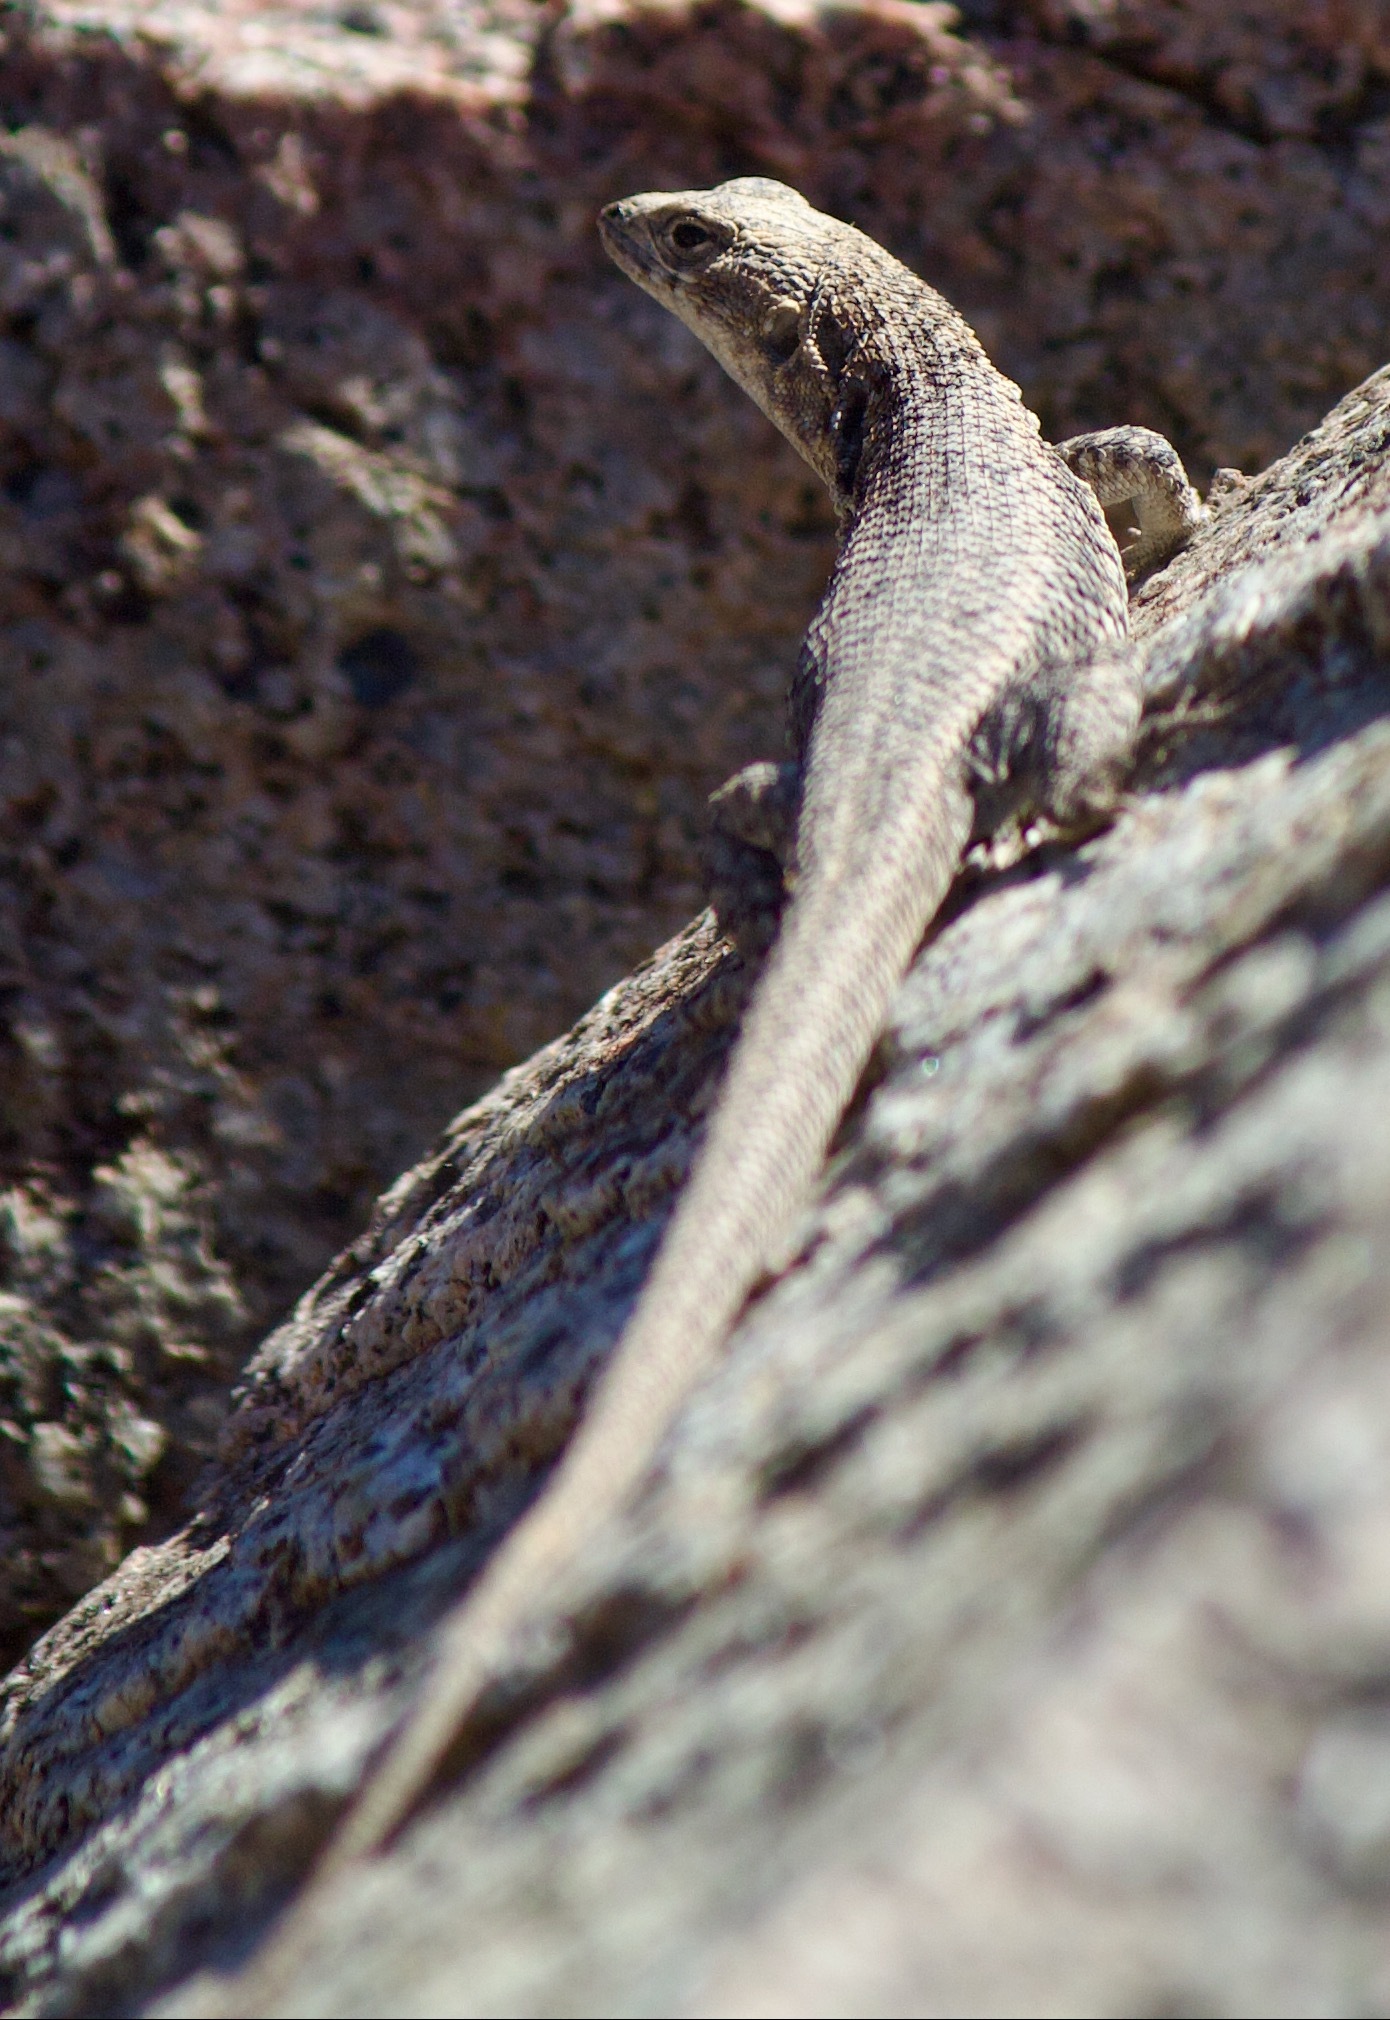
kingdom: Animalia
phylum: Chordata
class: Squamata
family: Liolaemidae
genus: Liolaemus
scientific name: Liolaemus platei
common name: Braided tree iguana
